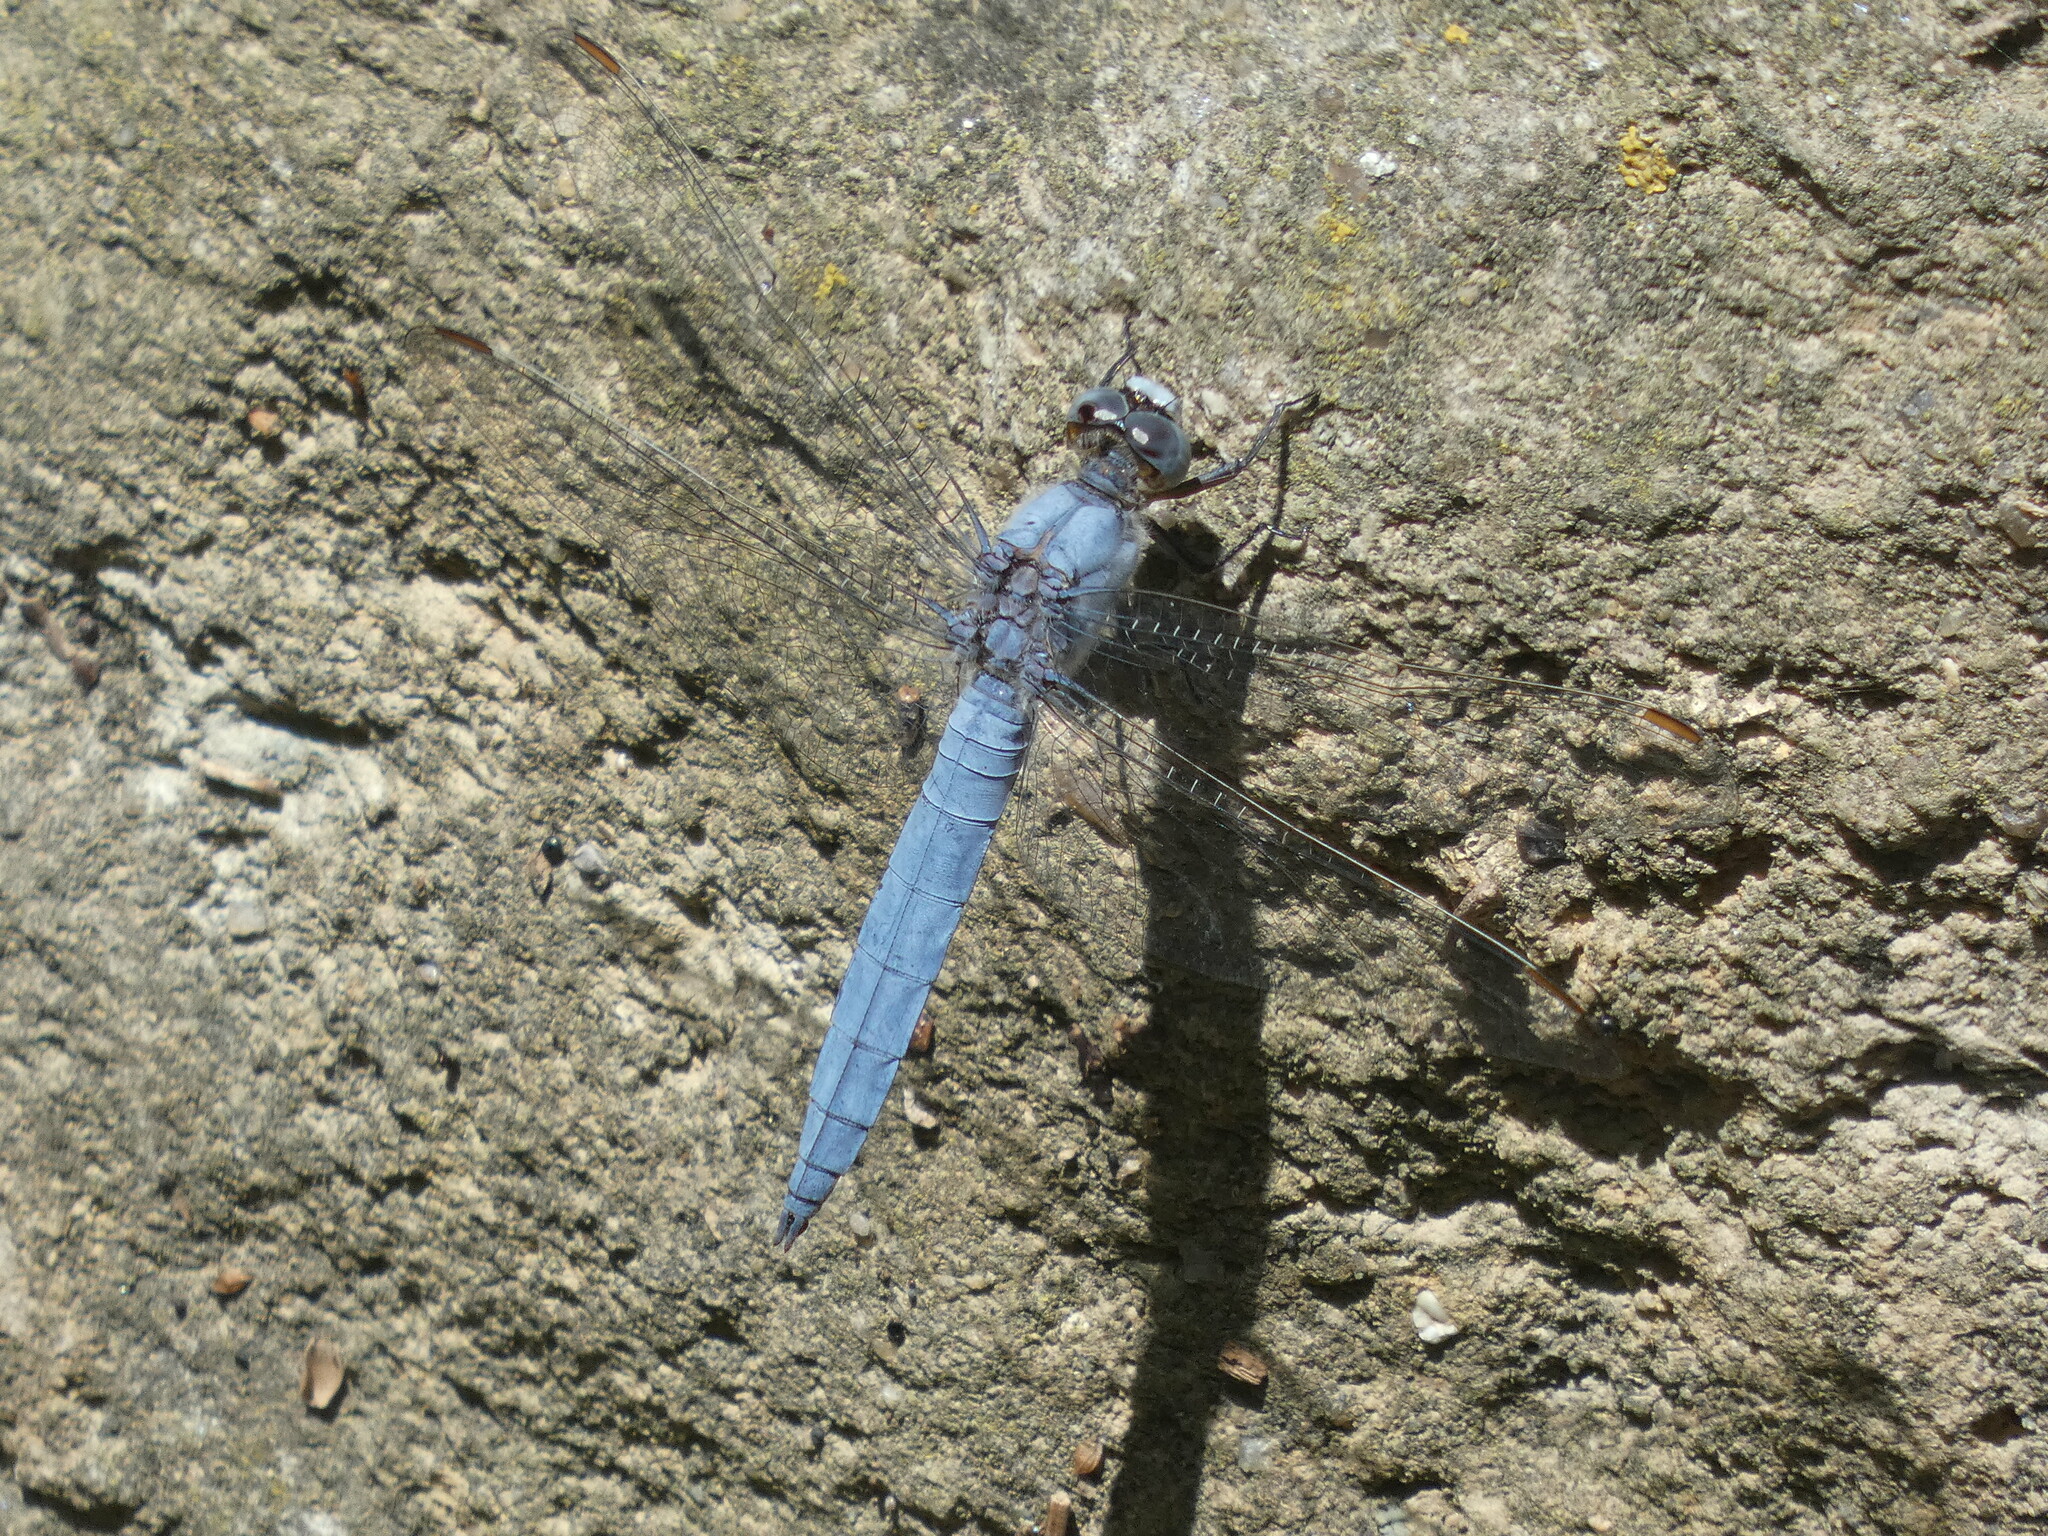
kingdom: Animalia
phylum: Arthropoda
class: Insecta
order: Odonata
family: Libellulidae
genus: Orthetrum
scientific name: Orthetrum brunneum
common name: Southern skimmer
